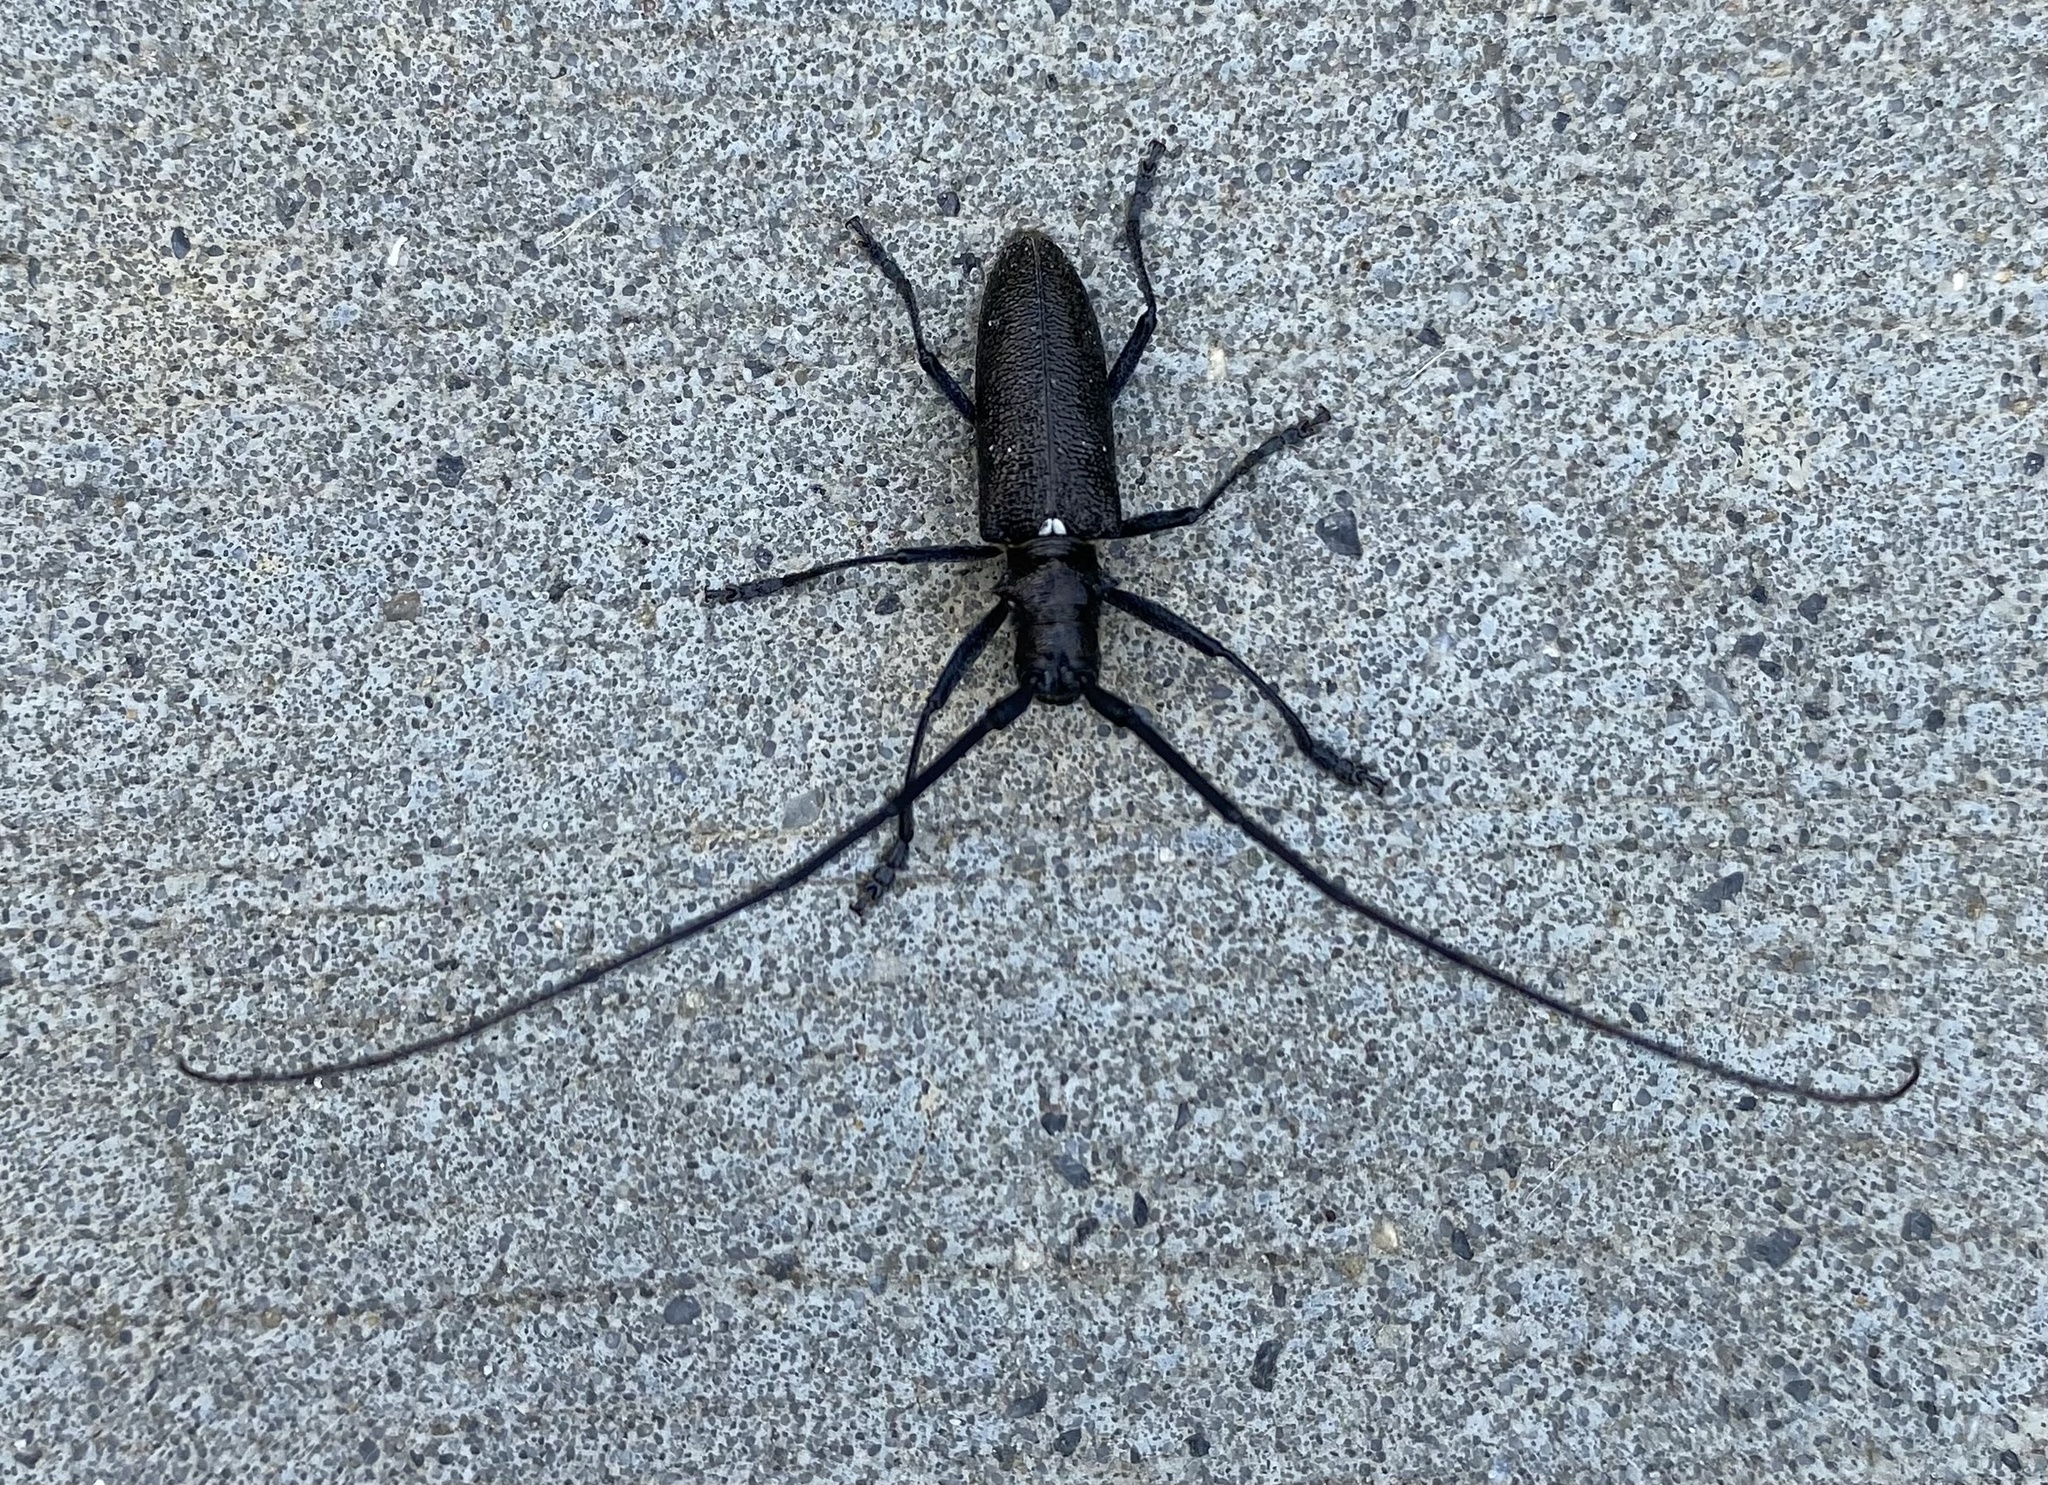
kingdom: Animalia
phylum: Arthropoda
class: Insecta
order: Coleoptera
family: Cerambycidae
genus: Monochamus
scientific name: Monochamus scutellatus
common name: White-spotted sawyer beetle
